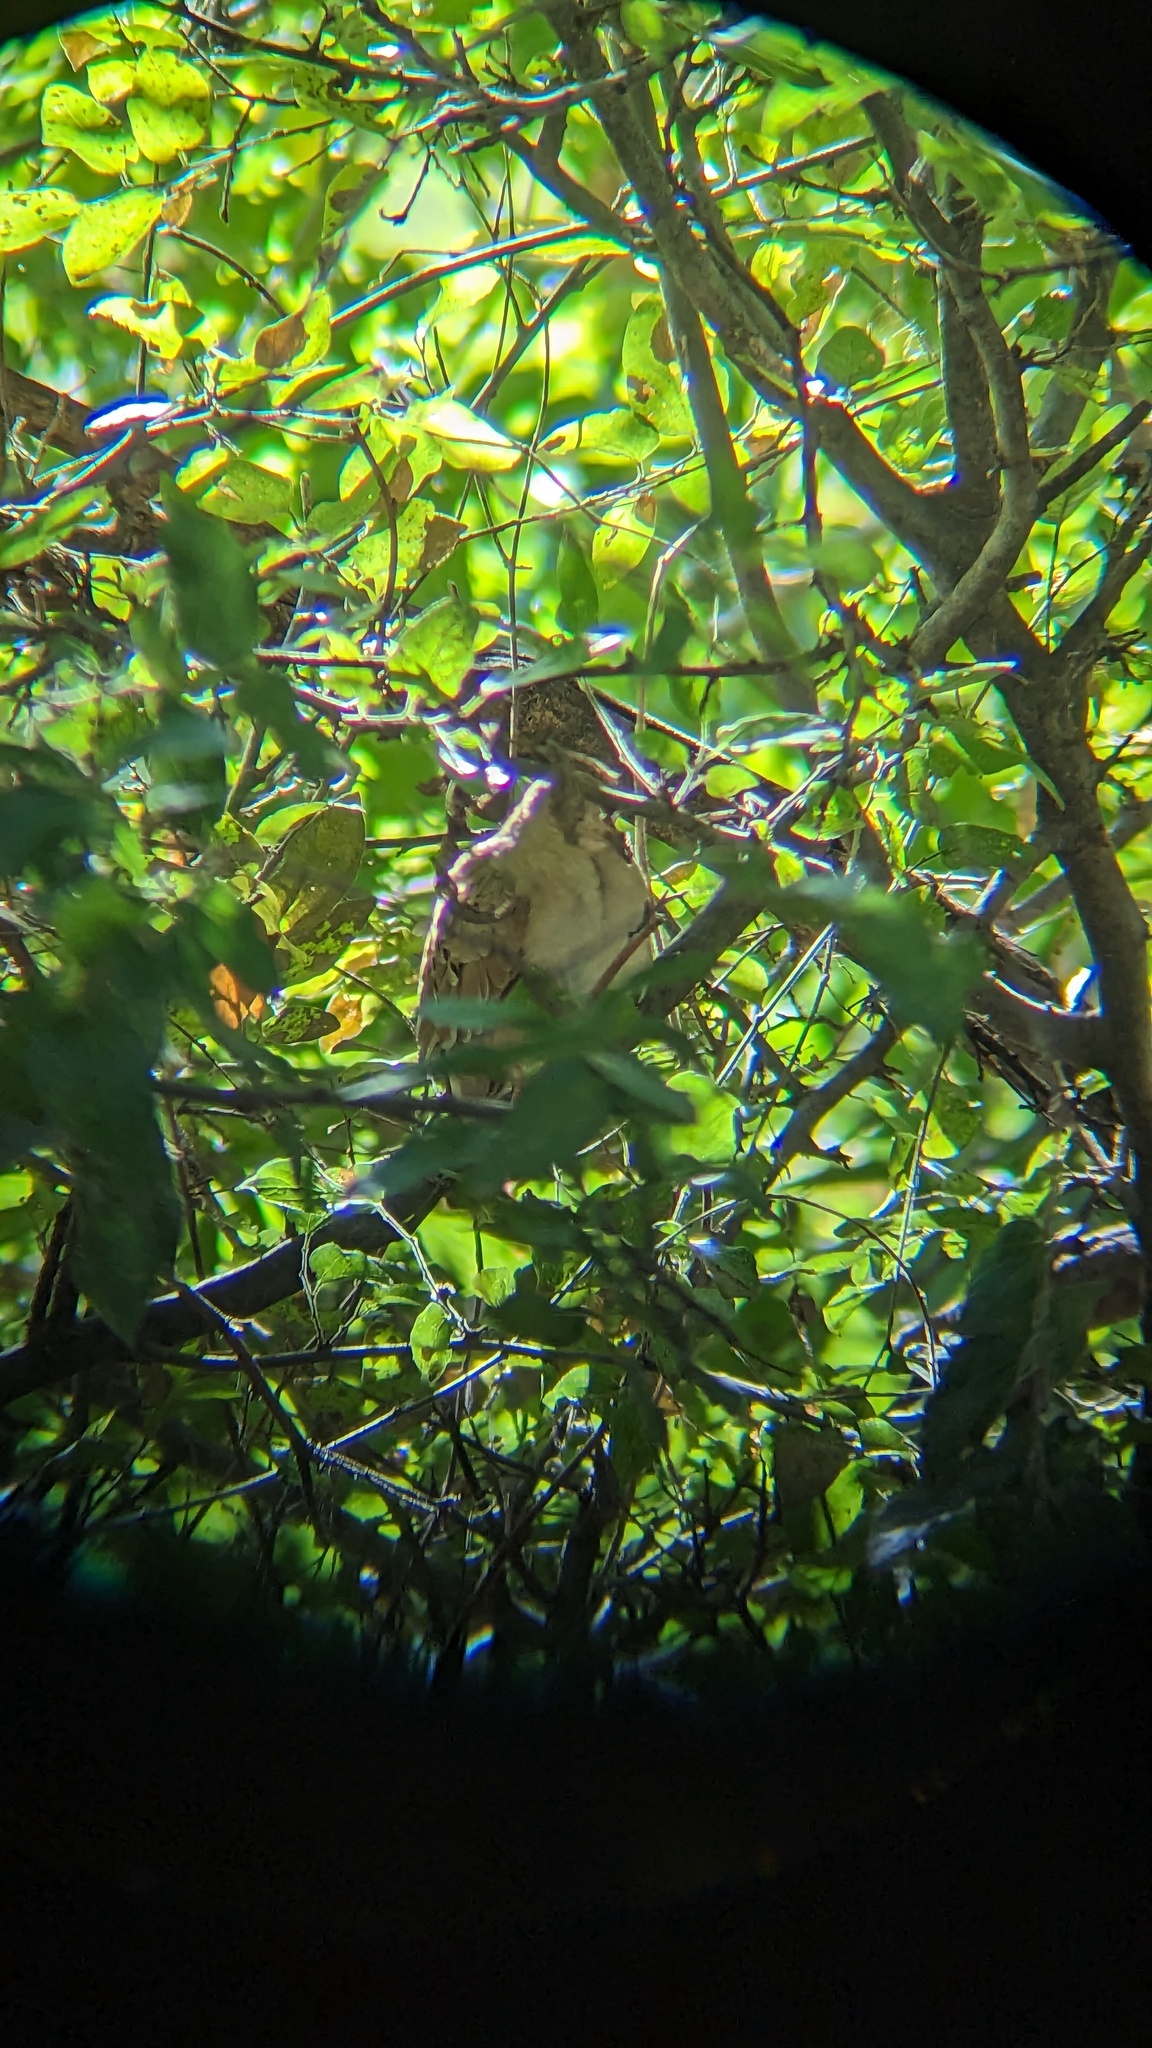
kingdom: Animalia
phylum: Chordata
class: Aves
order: Columbiformes
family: Columbidae
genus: Columbina
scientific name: Columbina talpacoti
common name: Ruddy ground dove
